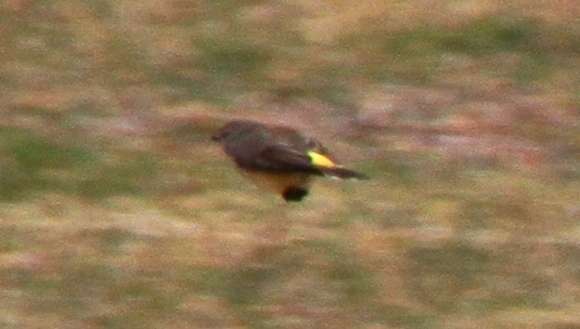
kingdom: Animalia
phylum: Chordata
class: Aves
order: Passeriformes
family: Acanthizidae
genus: Acanthiza
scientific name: Acanthiza chrysorrhoa
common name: Yellow-rumped thornbill
